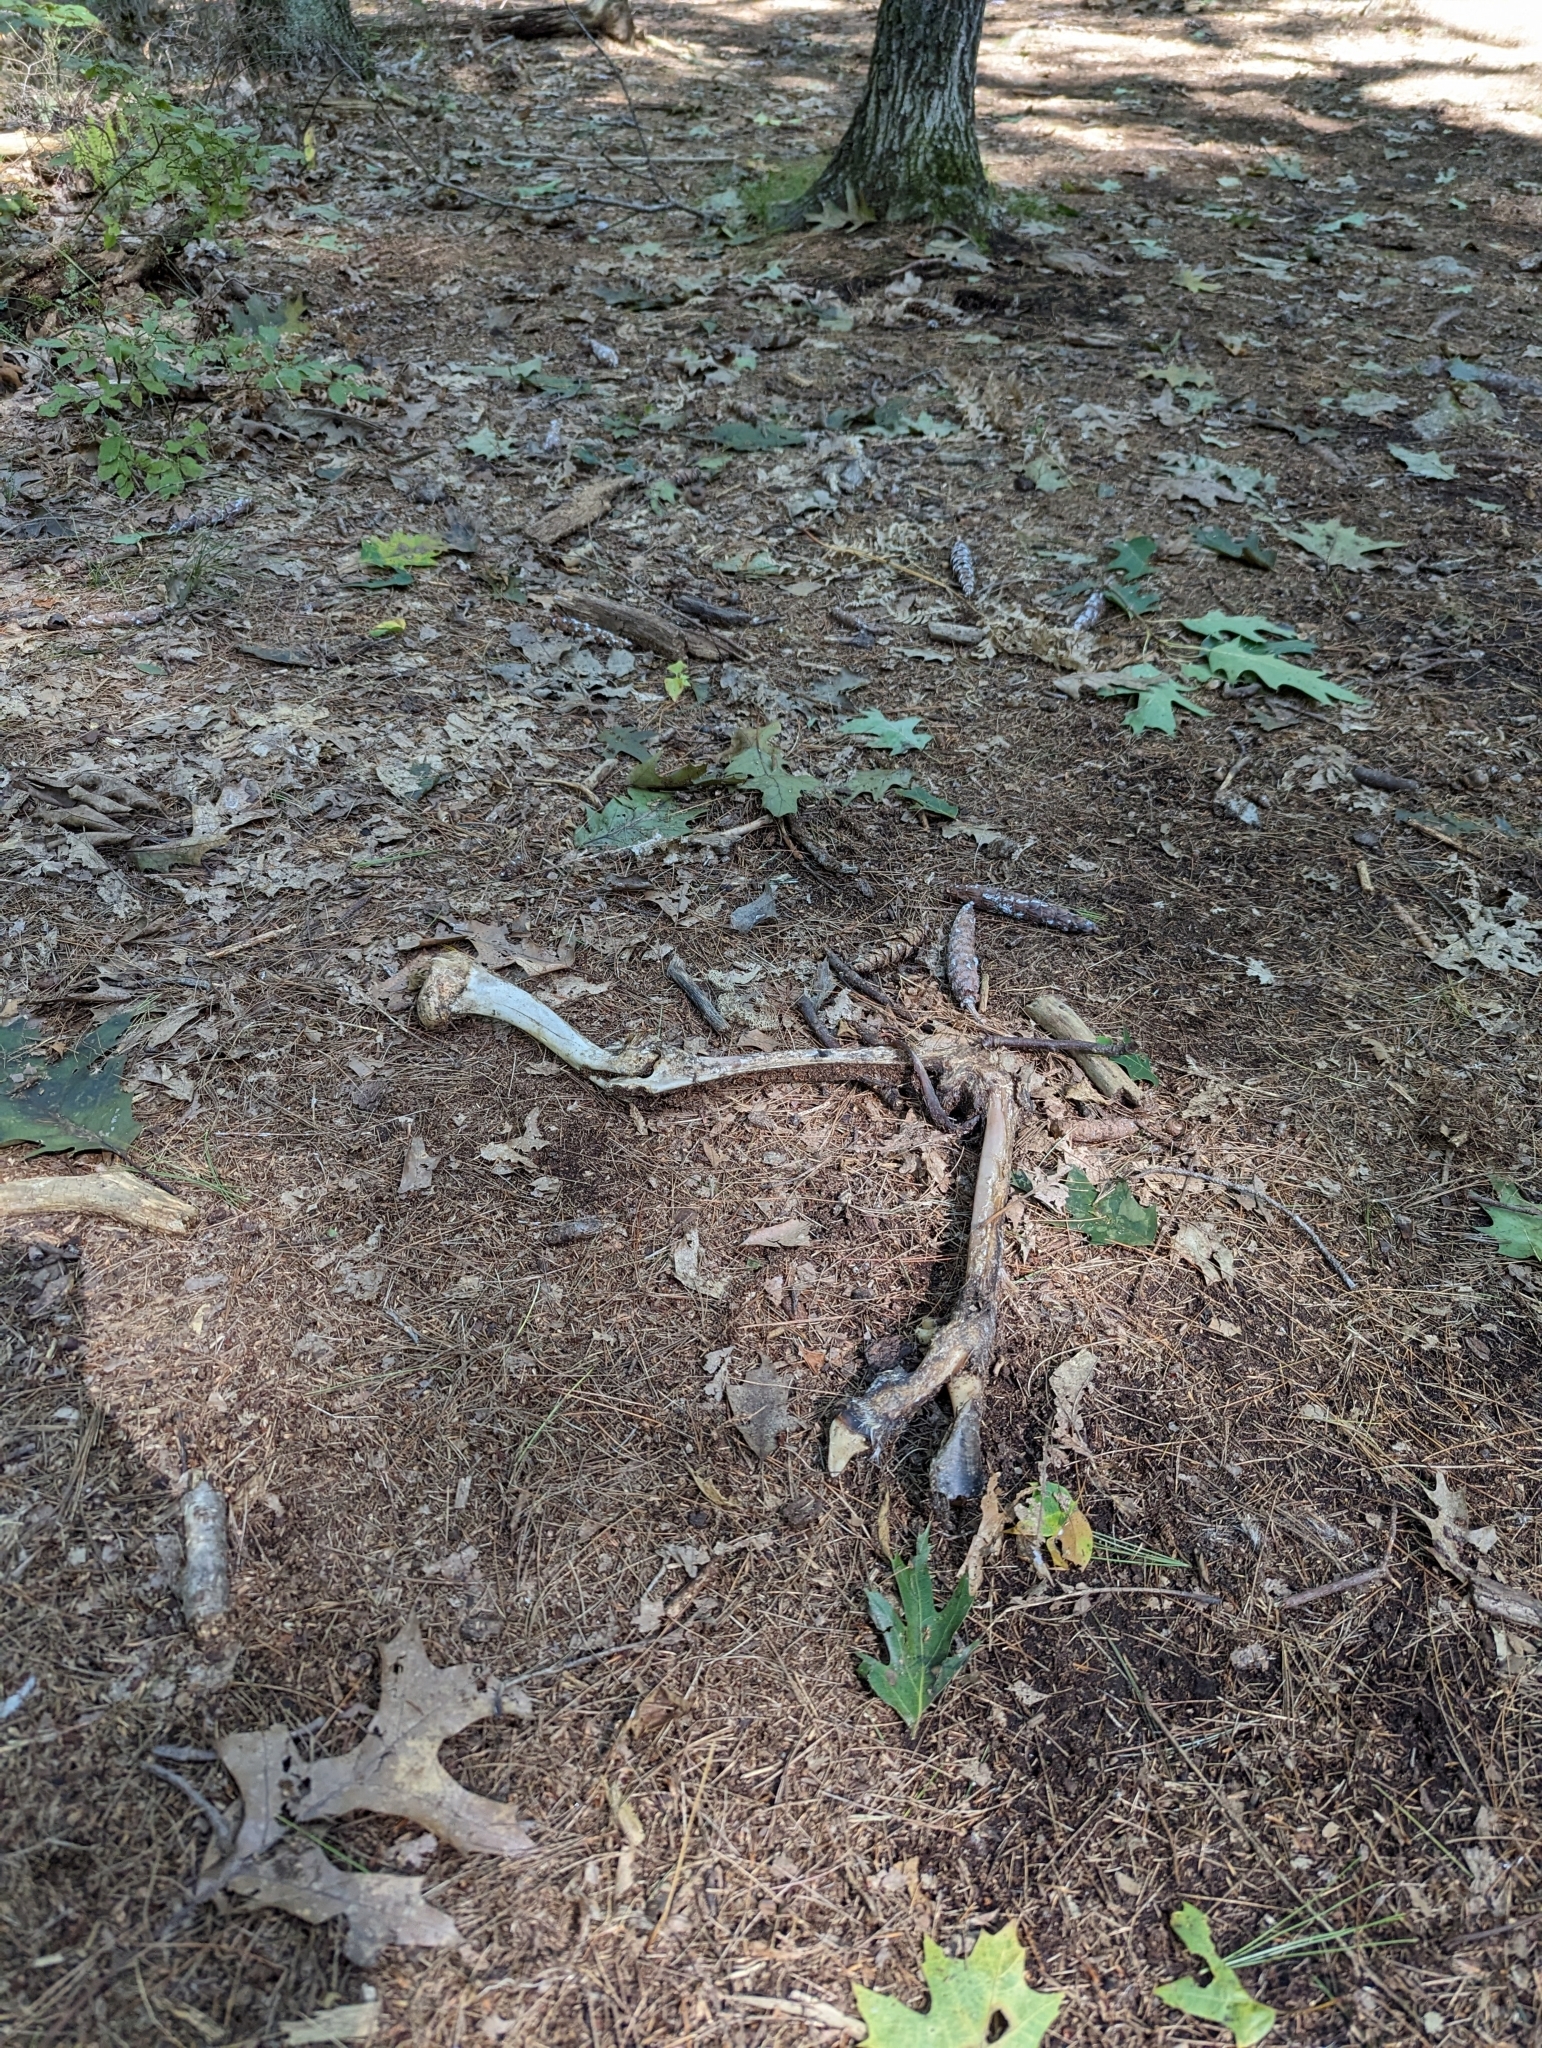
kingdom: Animalia
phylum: Chordata
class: Mammalia
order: Artiodactyla
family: Cervidae
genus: Odocoileus
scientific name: Odocoileus virginianus
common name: White-tailed deer
